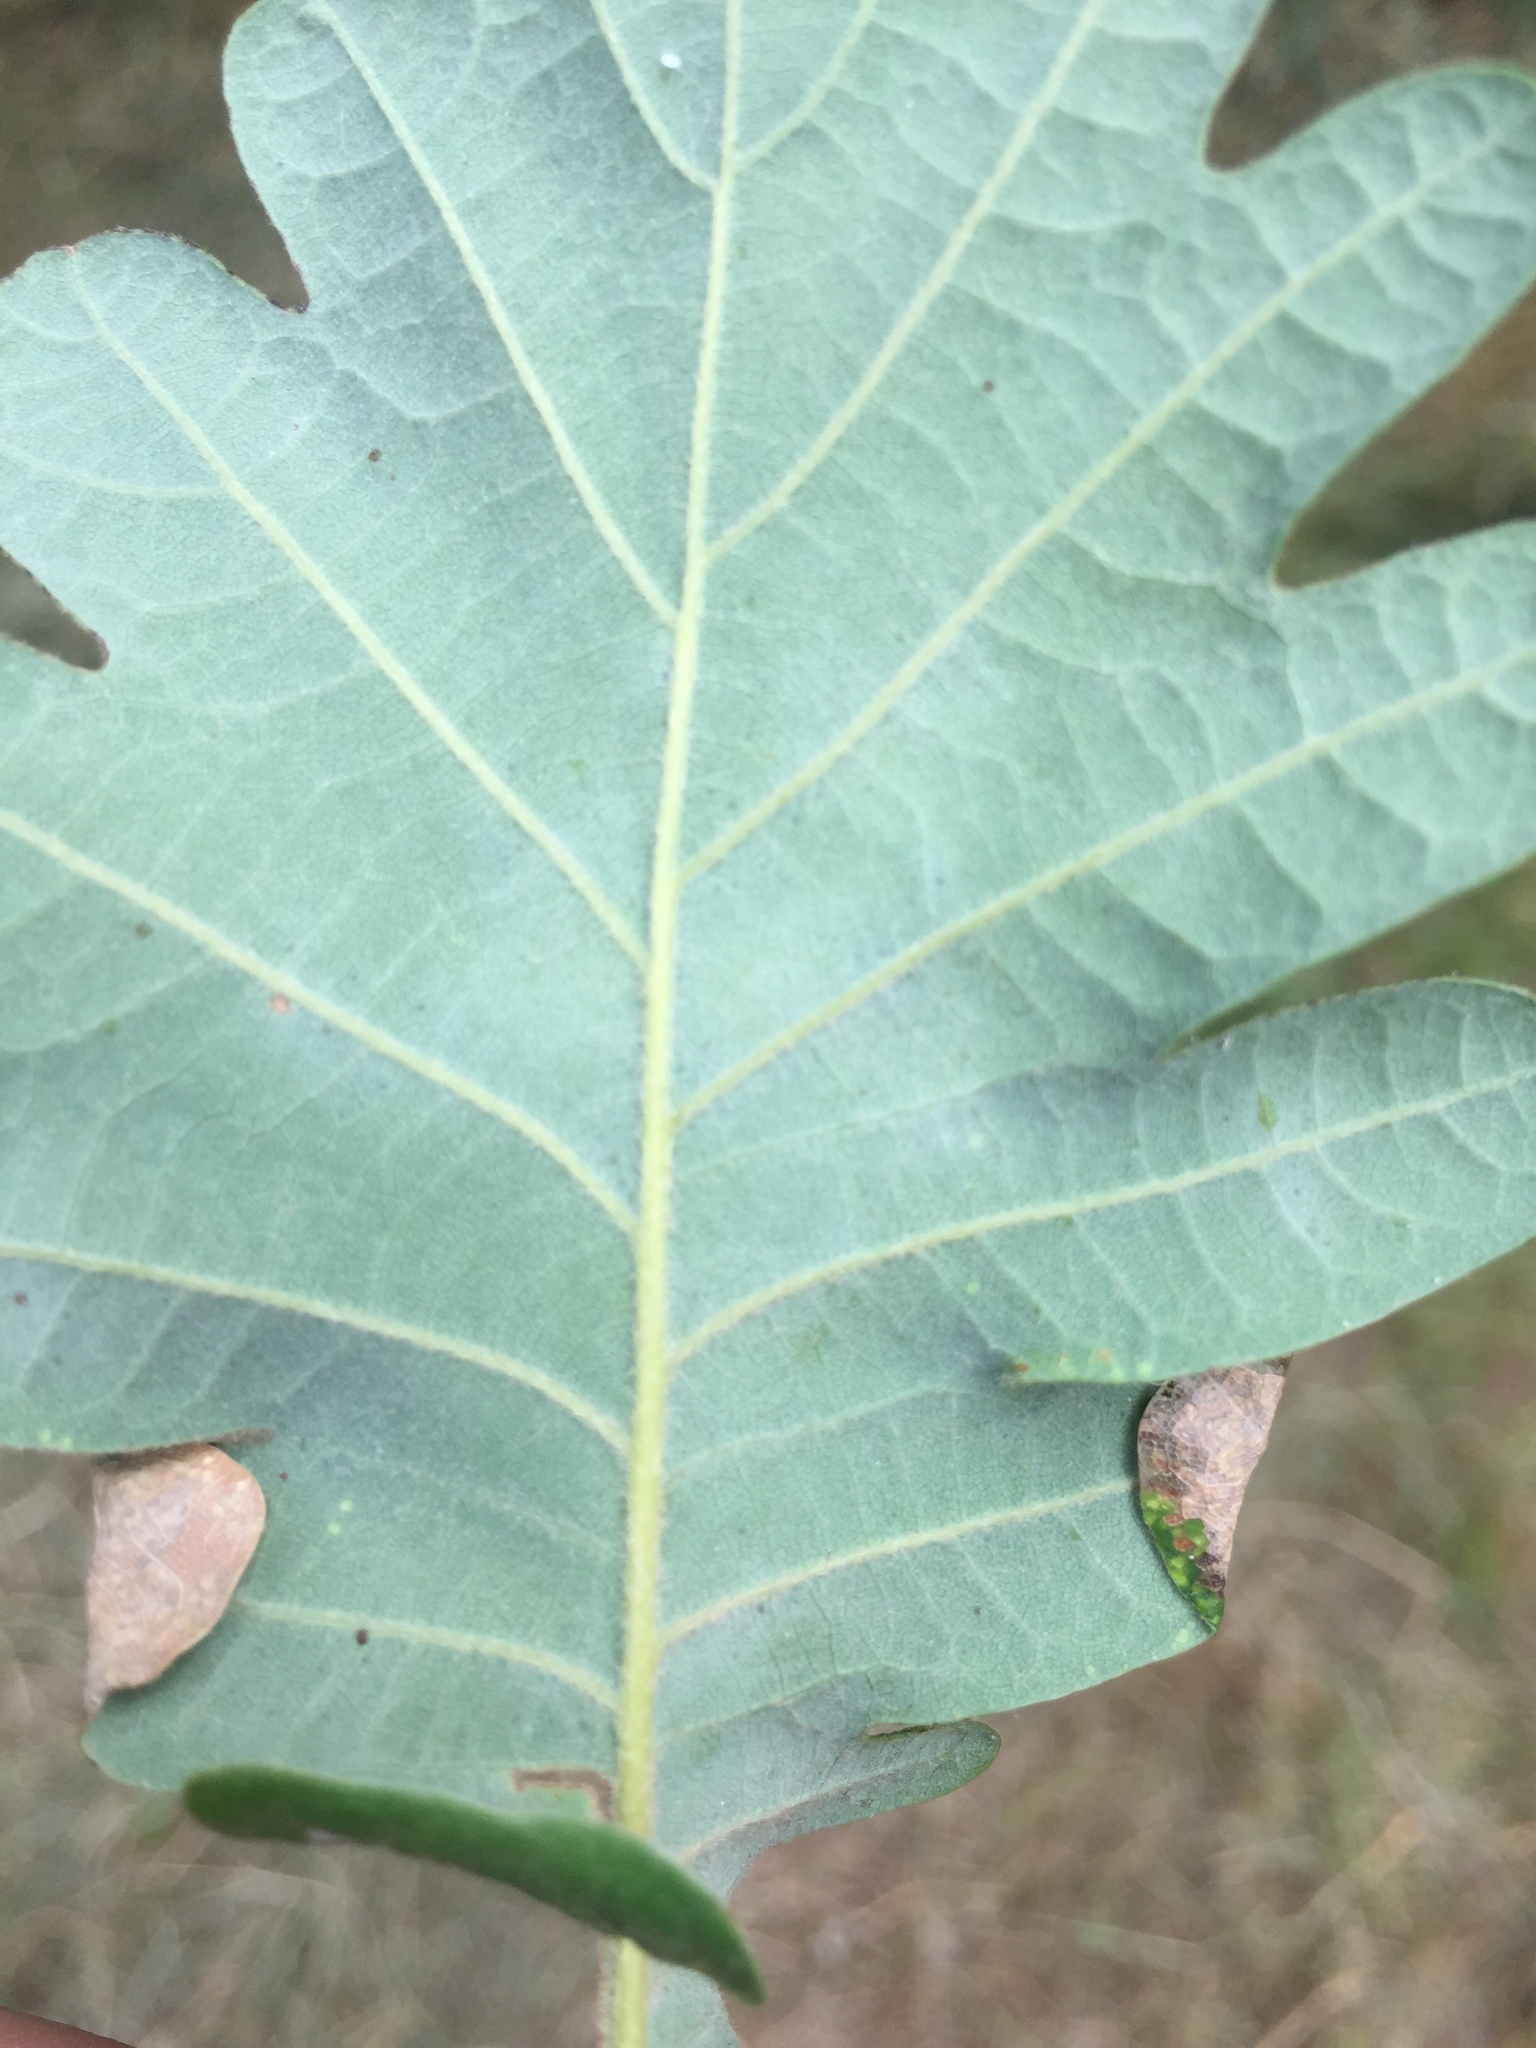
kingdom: Animalia
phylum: Arthropoda
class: Insecta
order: Diptera
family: Cecidomyiidae
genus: Macrodiplosis
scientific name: Macrodiplosis pustularis
